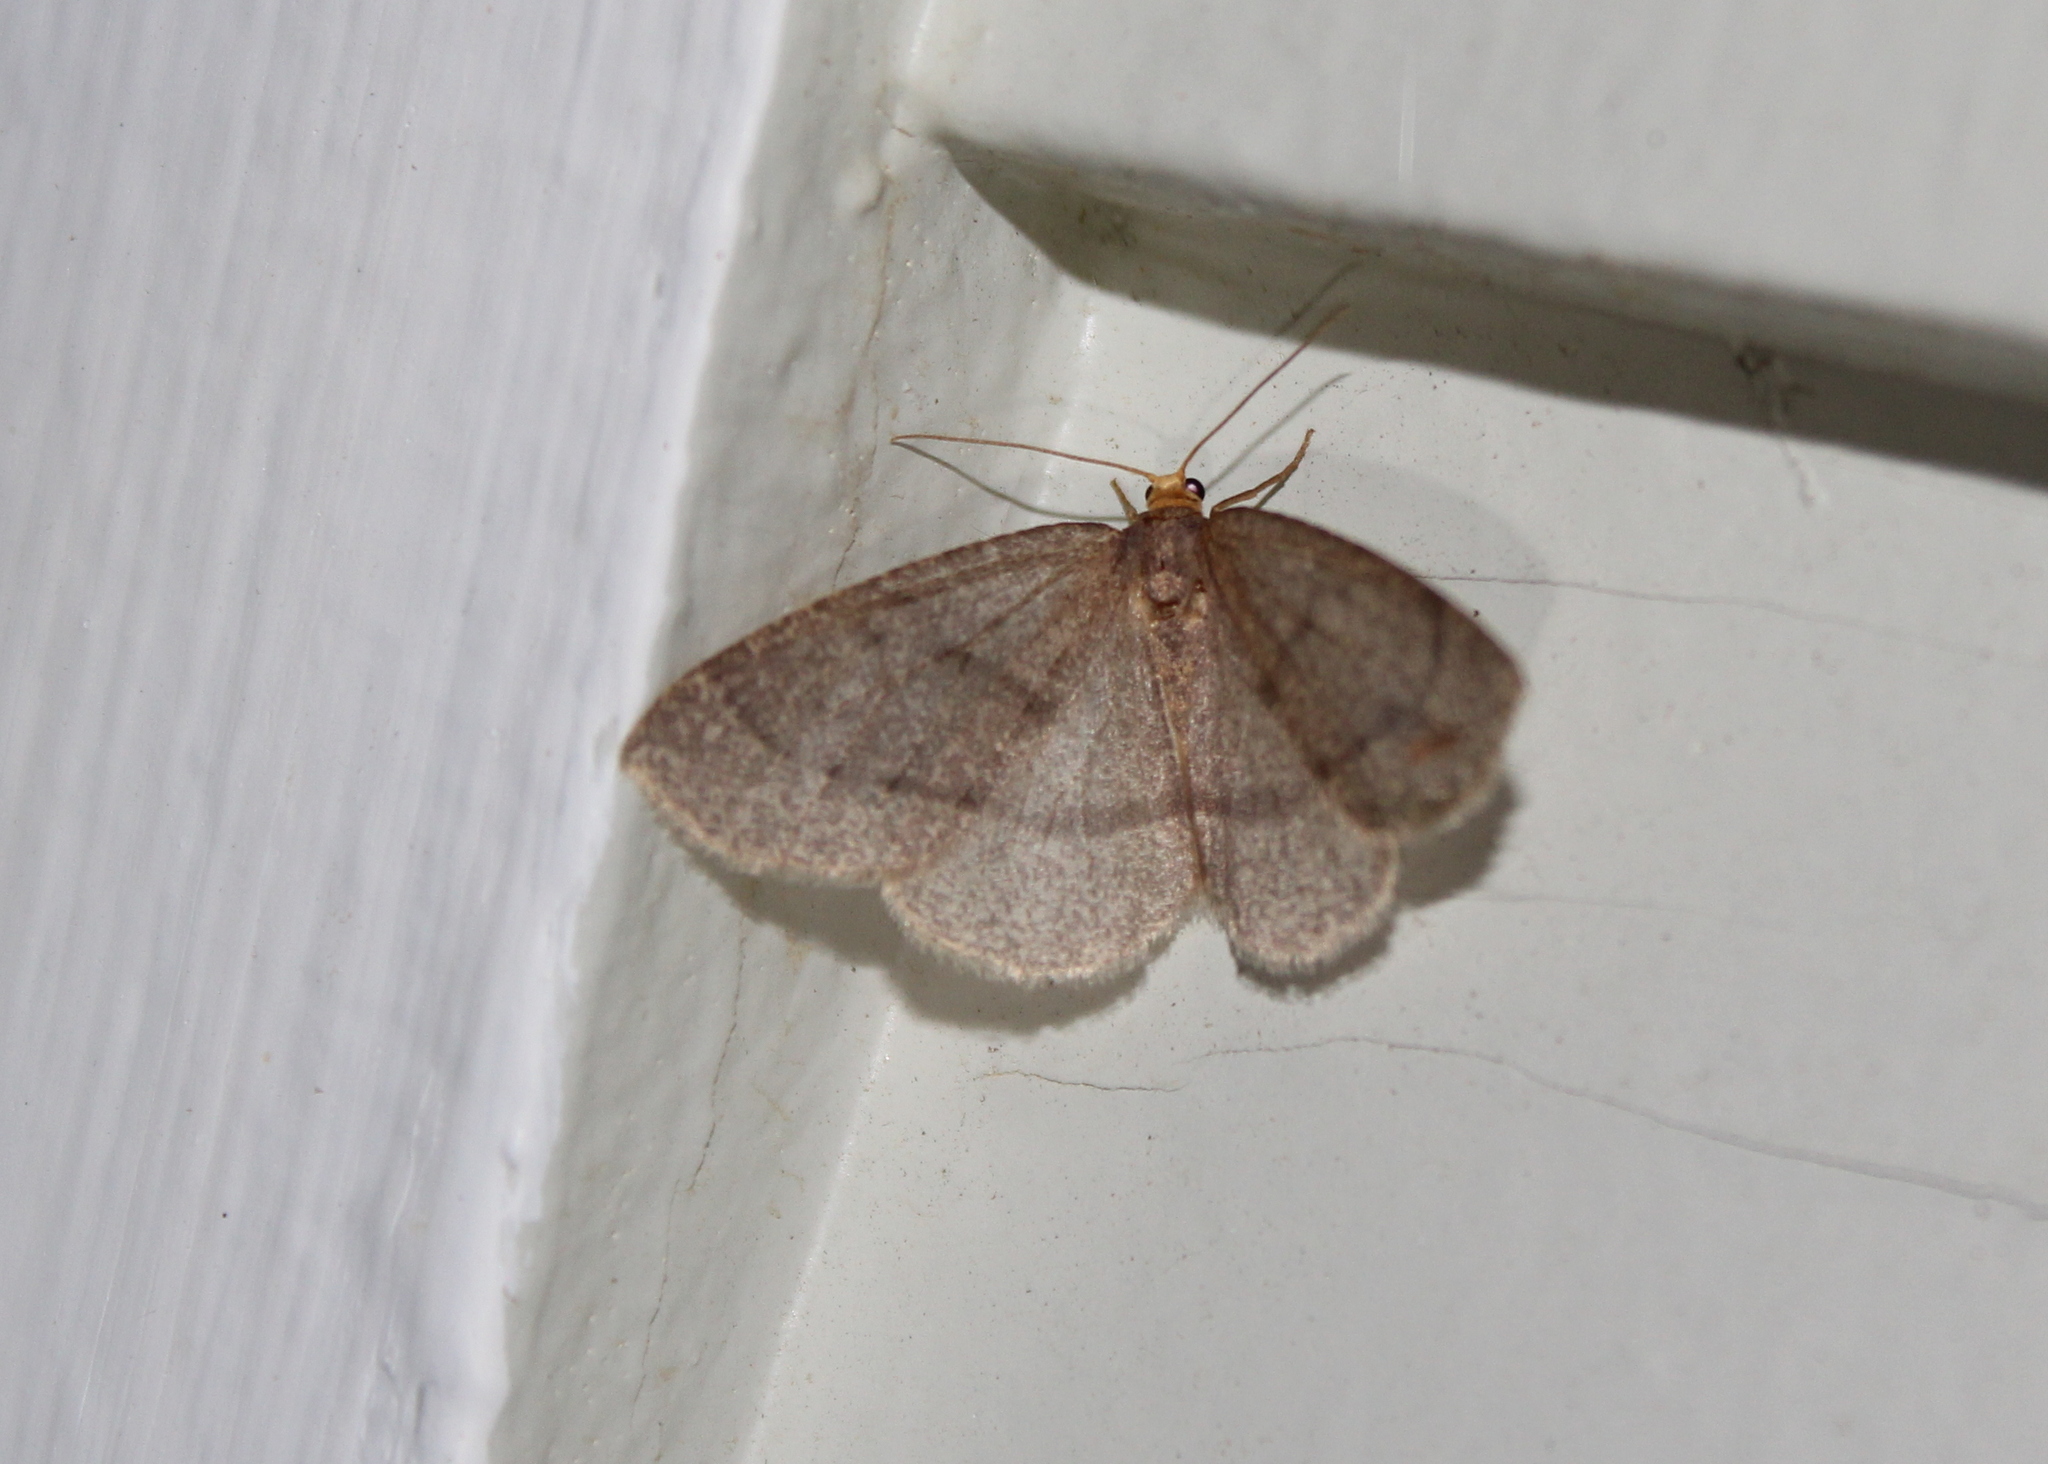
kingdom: Animalia
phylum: Arthropoda
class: Insecta
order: Lepidoptera
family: Geometridae
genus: Lambdina
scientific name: Lambdina fervidaria
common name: Curve-lined looper moth
